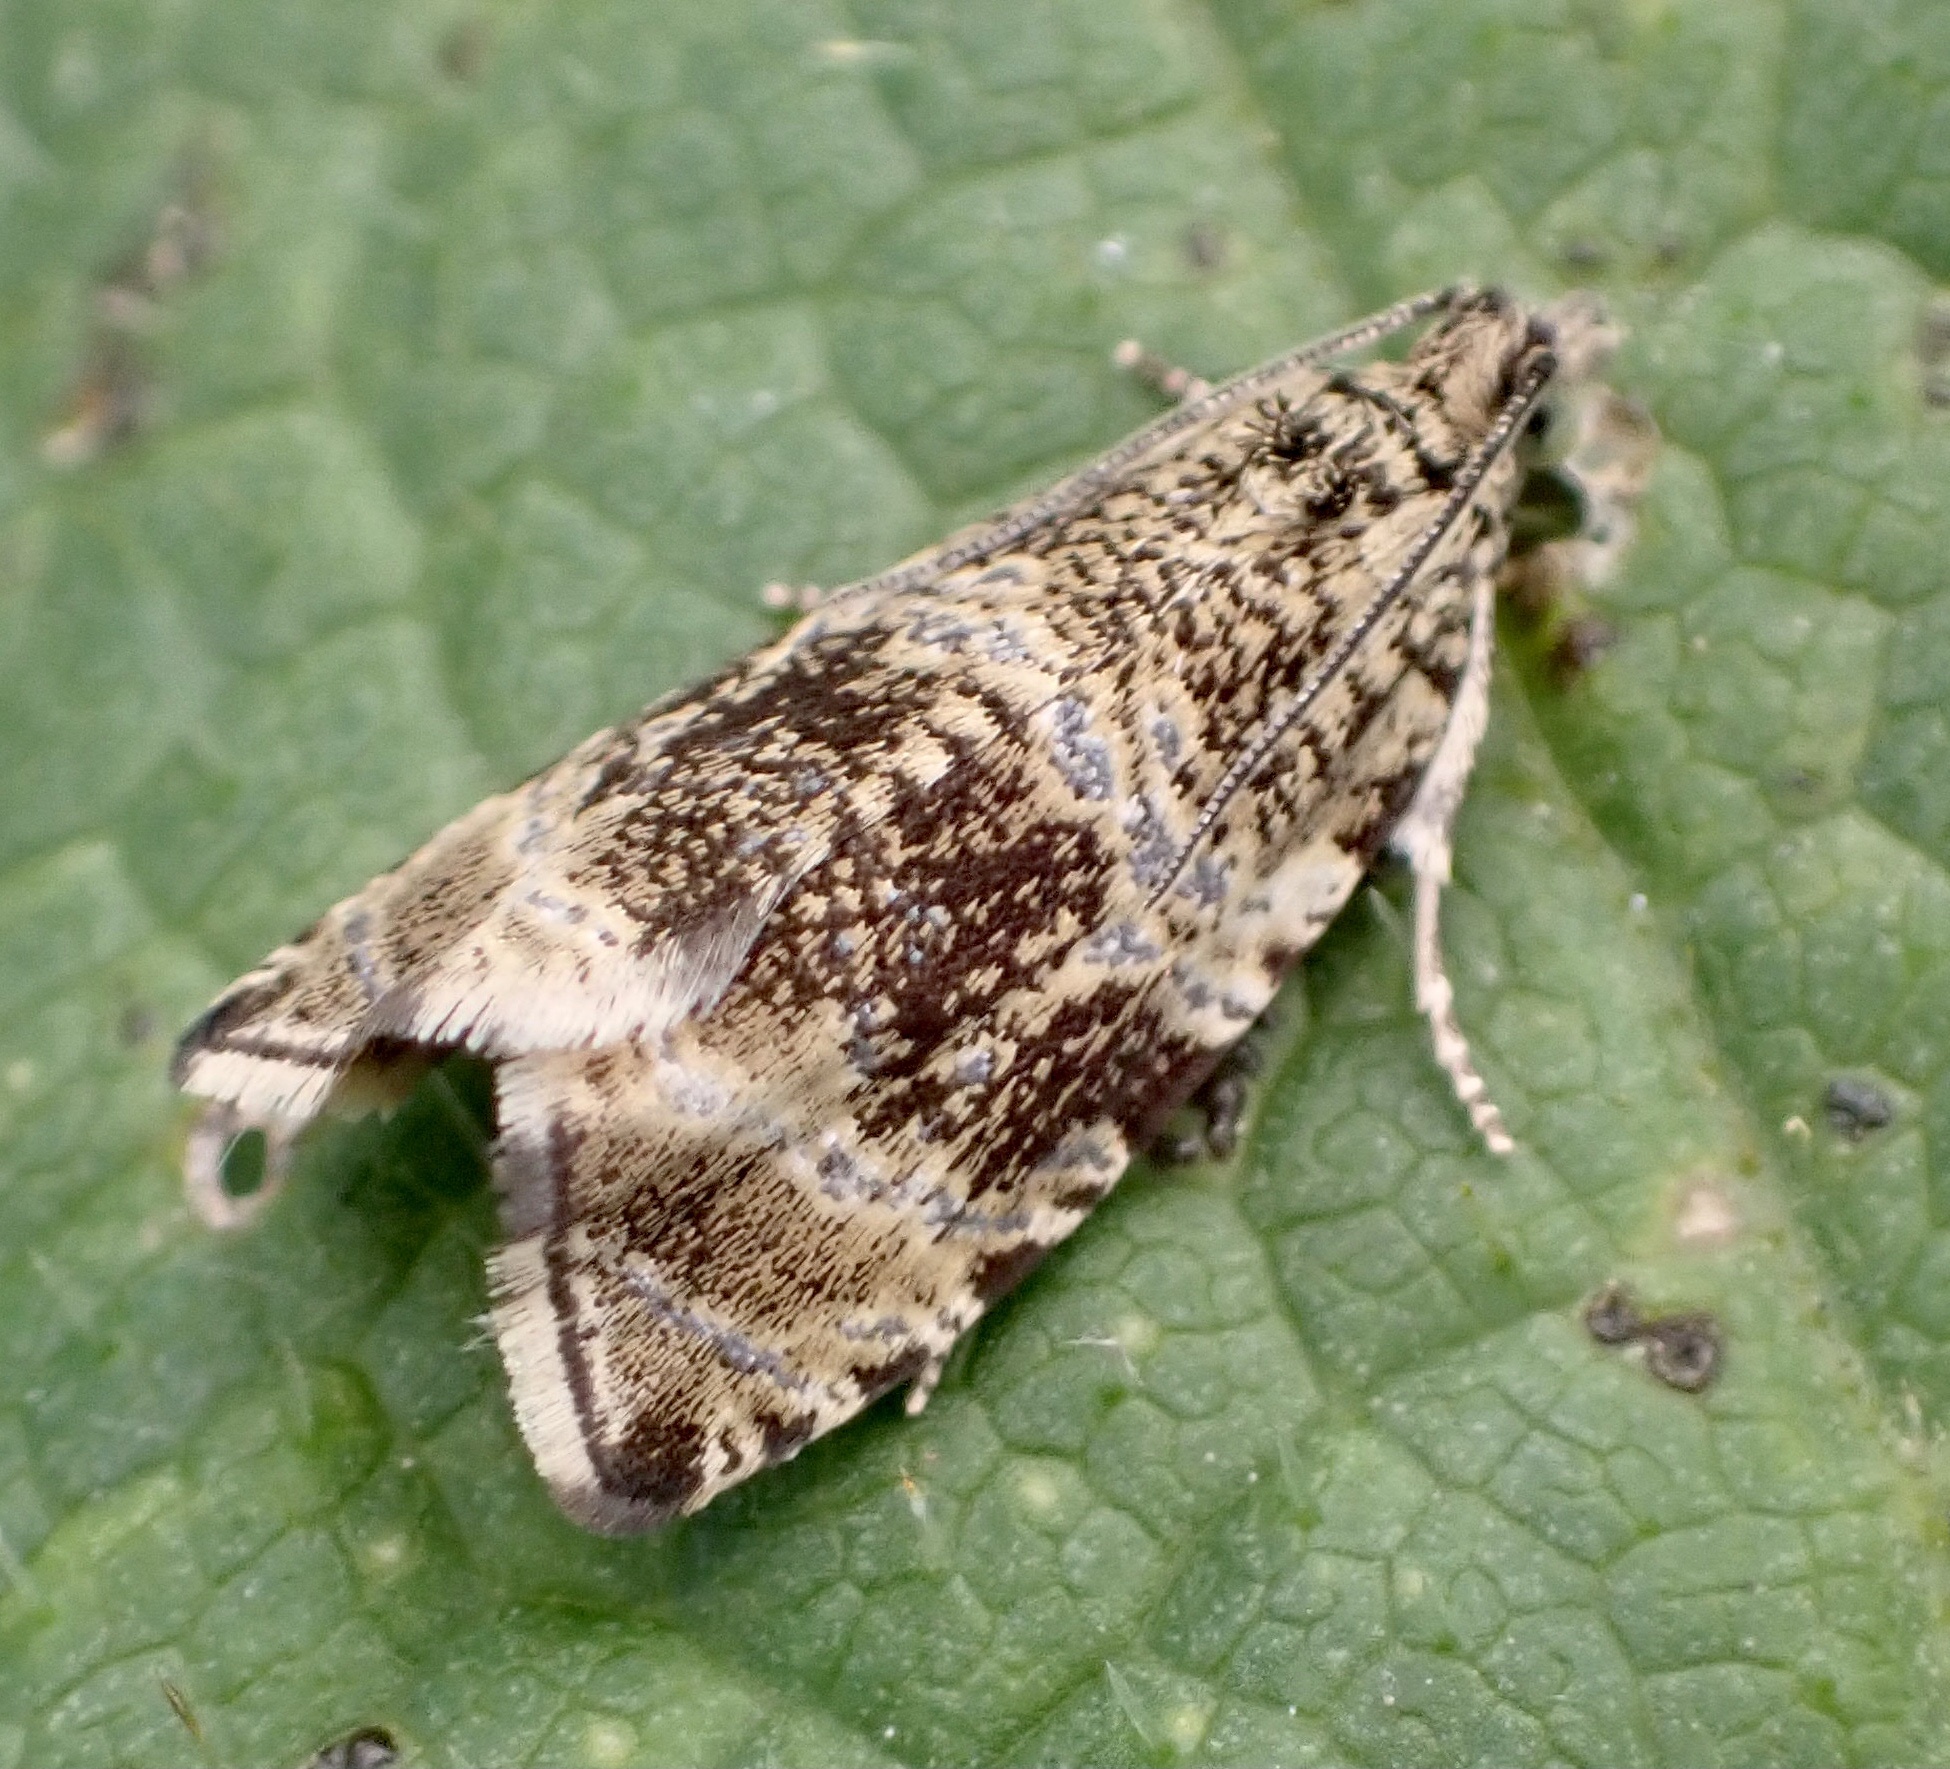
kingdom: Animalia
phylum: Arthropoda
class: Insecta
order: Lepidoptera
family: Tortricidae
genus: Syricoris
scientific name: Syricoris lacunana
